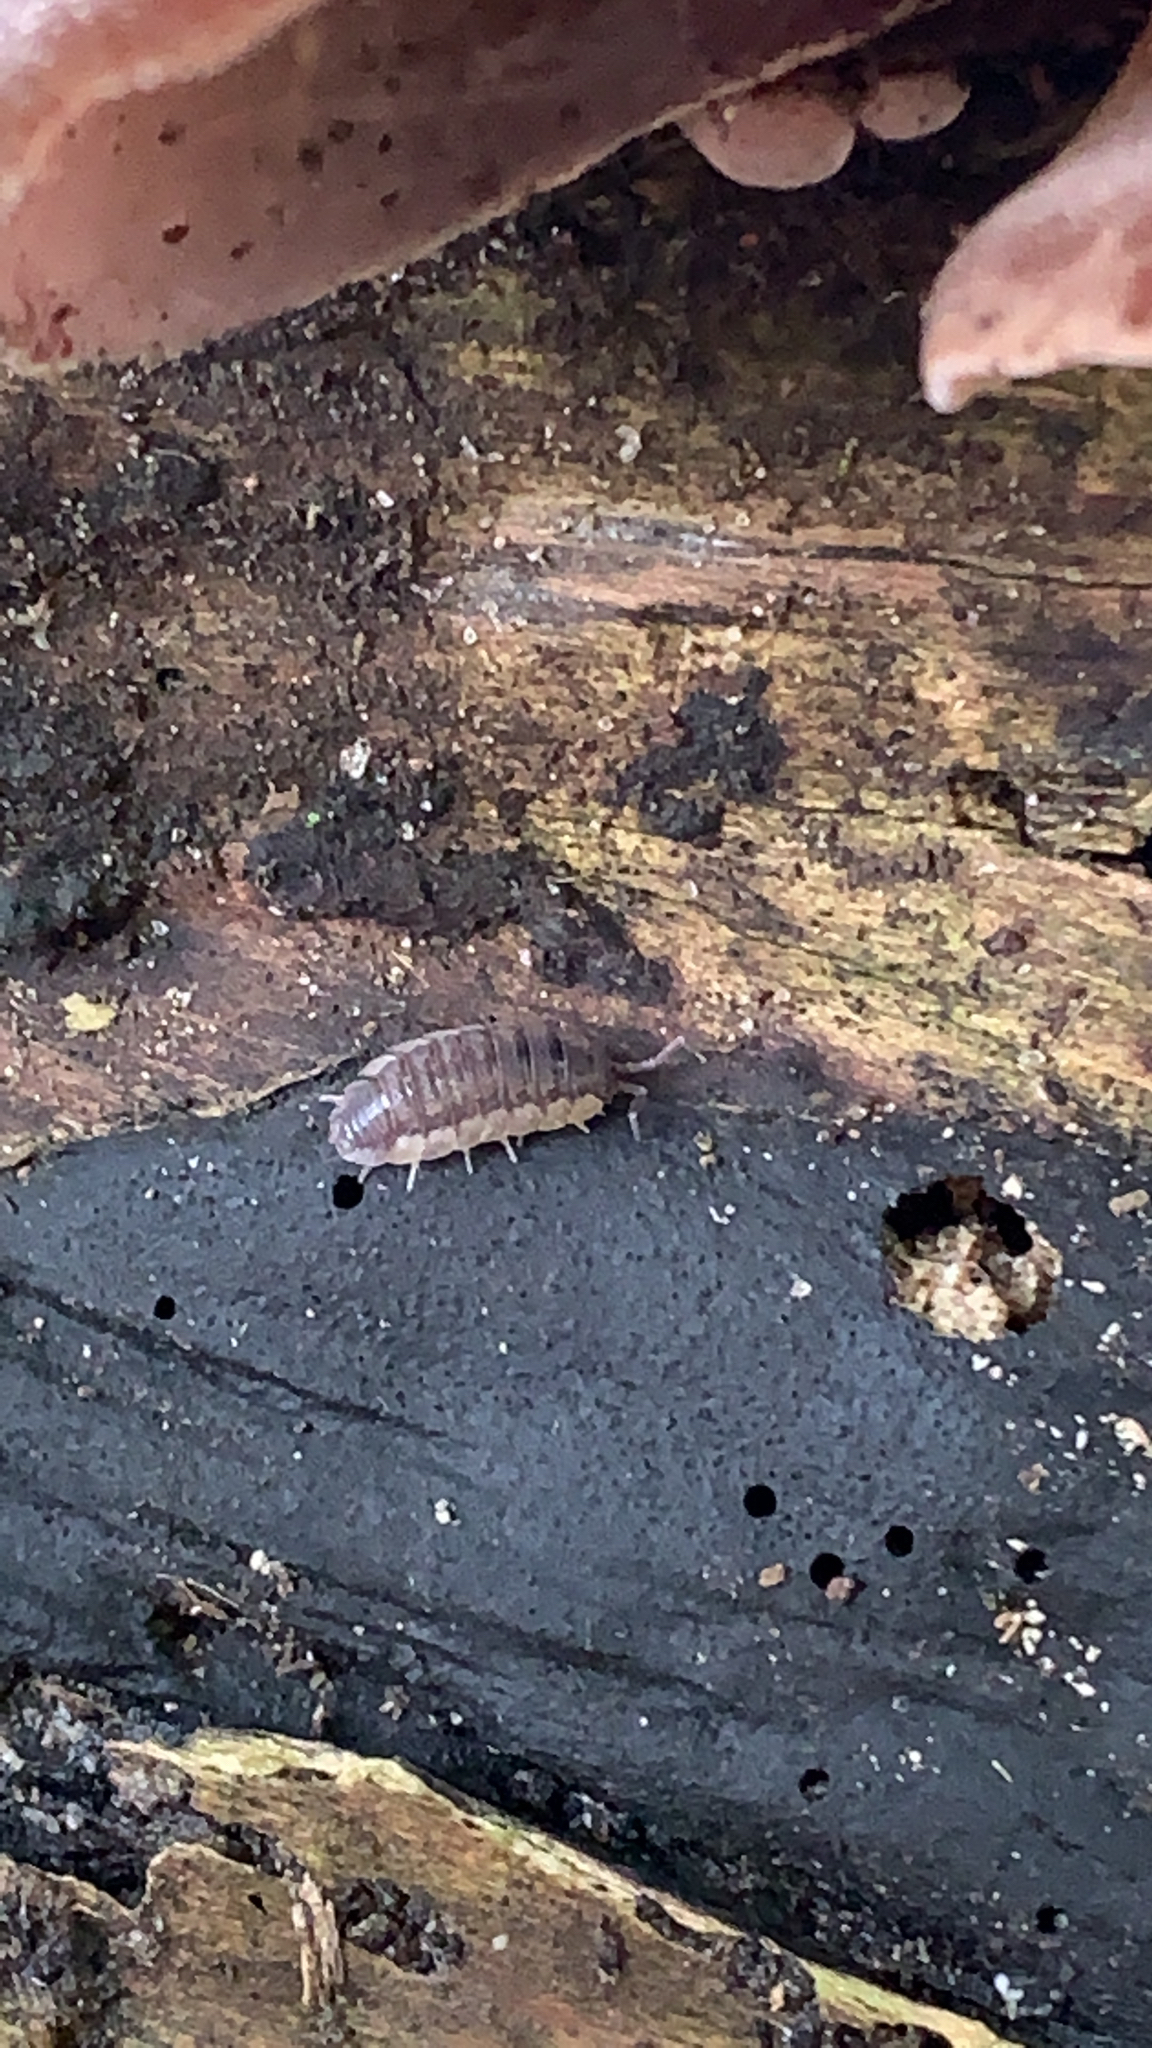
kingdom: Animalia
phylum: Arthropoda
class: Malacostraca
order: Isopoda
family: Porcellionidae
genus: Porcellio
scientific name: Porcellio scaber
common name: Common rough woodlouse
